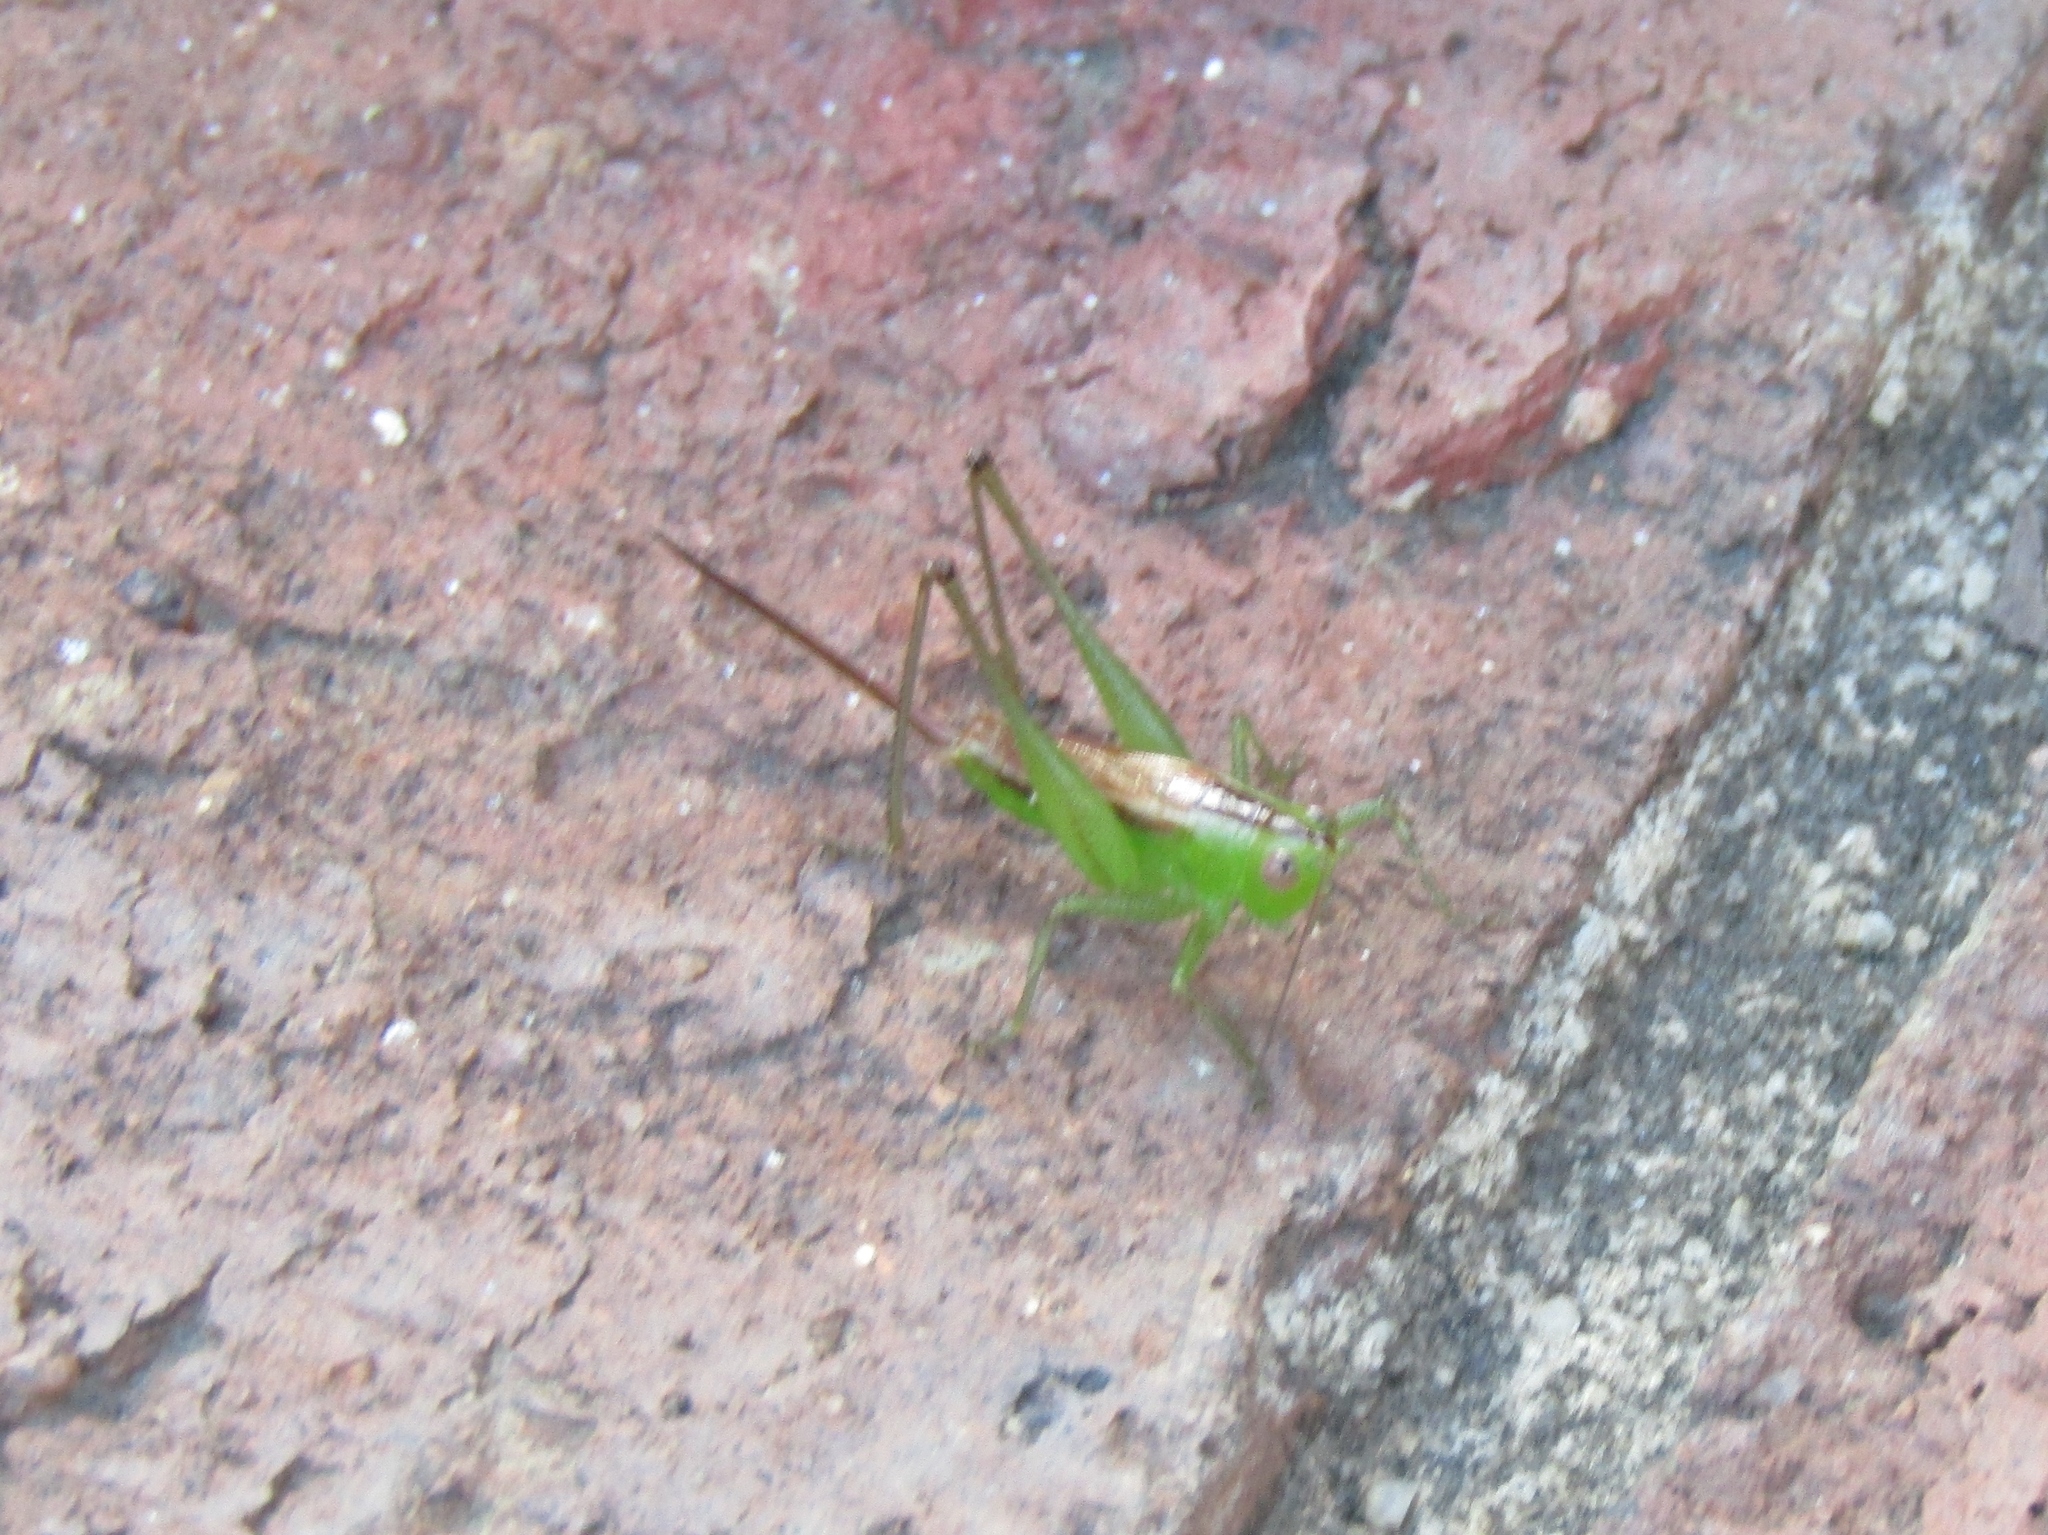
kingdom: Animalia
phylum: Arthropoda
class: Insecta
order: Orthoptera
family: Tettigoniidae
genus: Conocephalus
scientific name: Conocephalus brevipennis
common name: Short-winged meadow katydid
